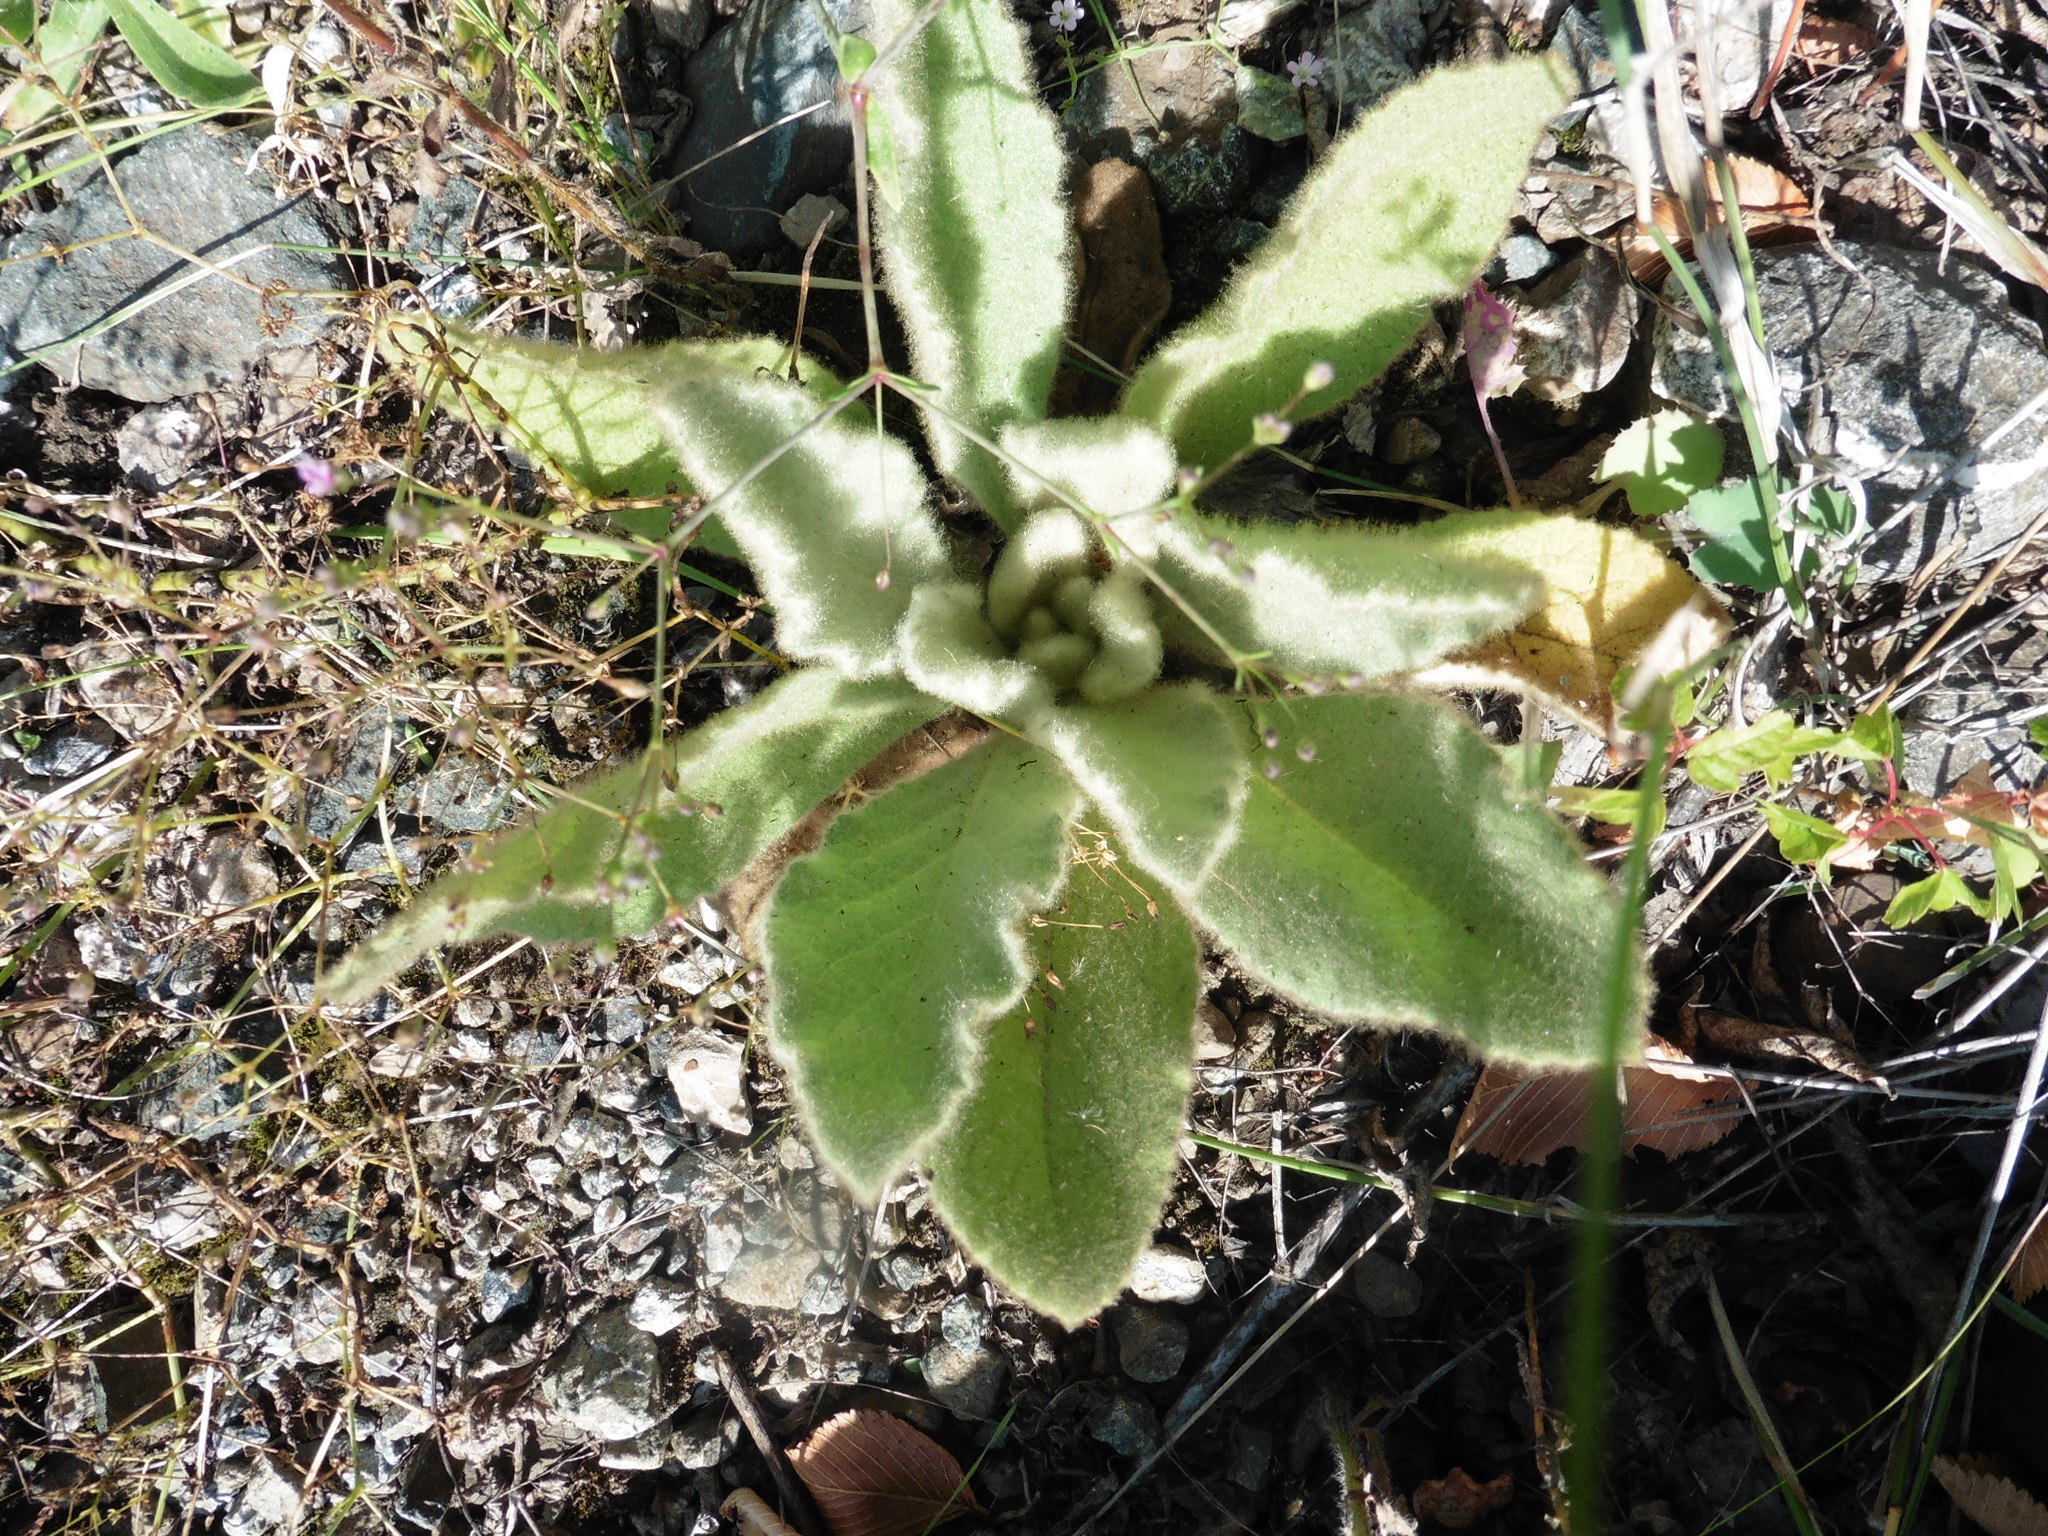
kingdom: Plantae
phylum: Tracheophyta
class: Magnoliopsida
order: Lamiales
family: Scrophulariaceae
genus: Verbascum
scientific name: Verbascum thapsus
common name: Common mullein
